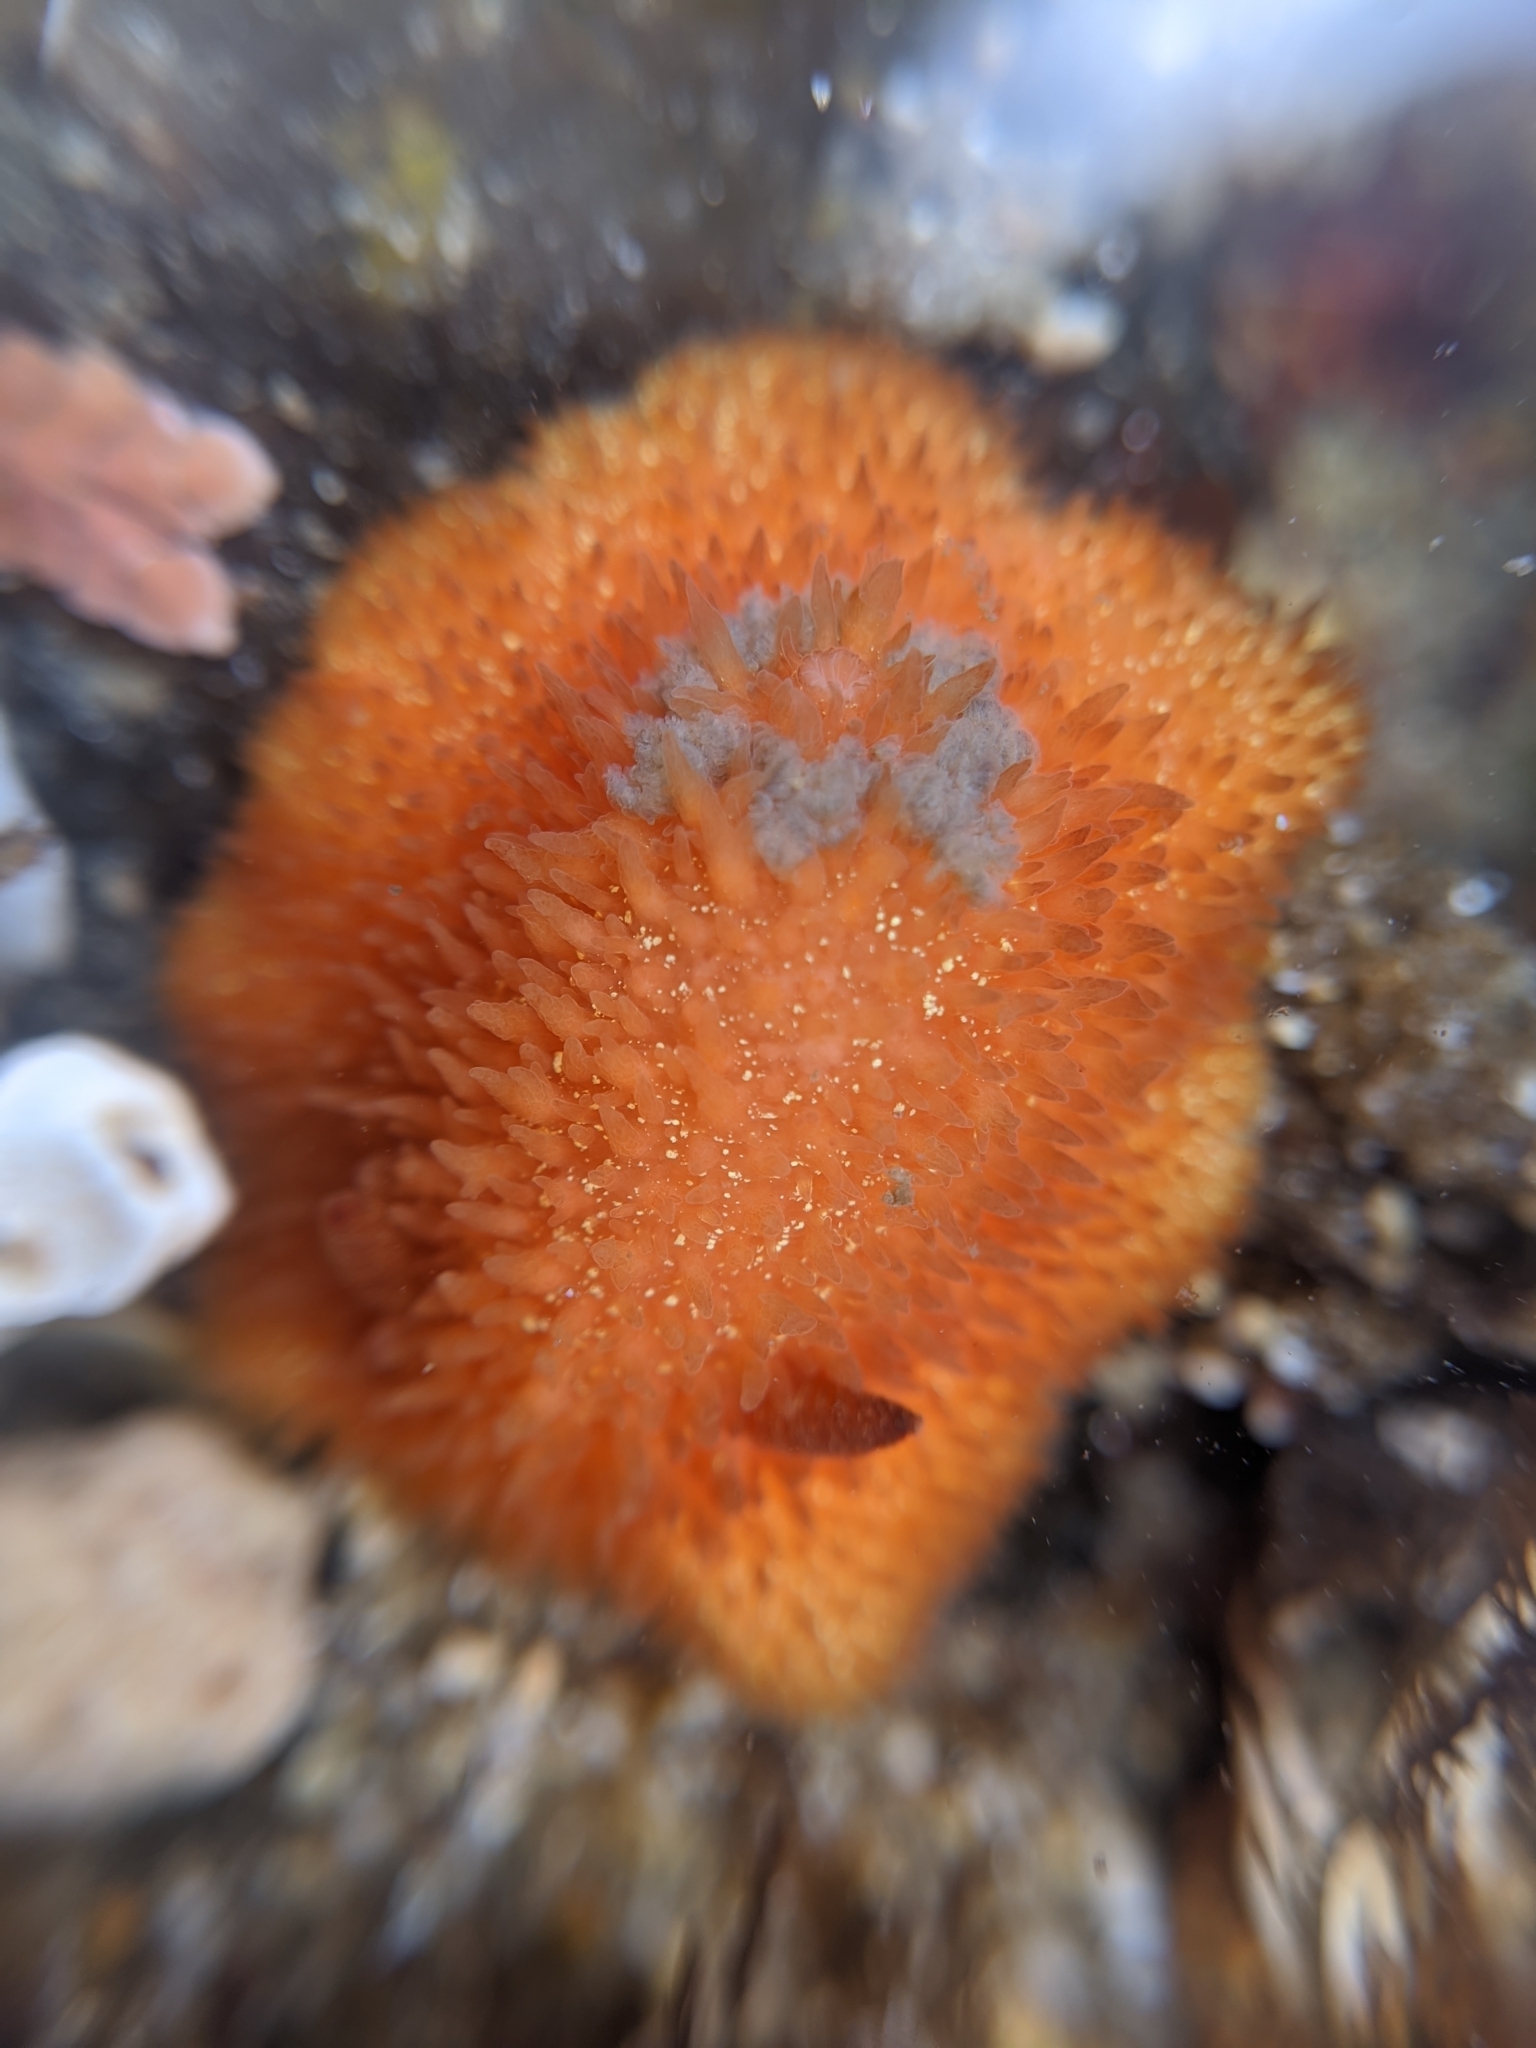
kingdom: Animalia
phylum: Mollusca
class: Gastropoda
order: Nudibranchia
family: Onchidorididae
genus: Acanthodoris
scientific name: Acanthodoris lutea
